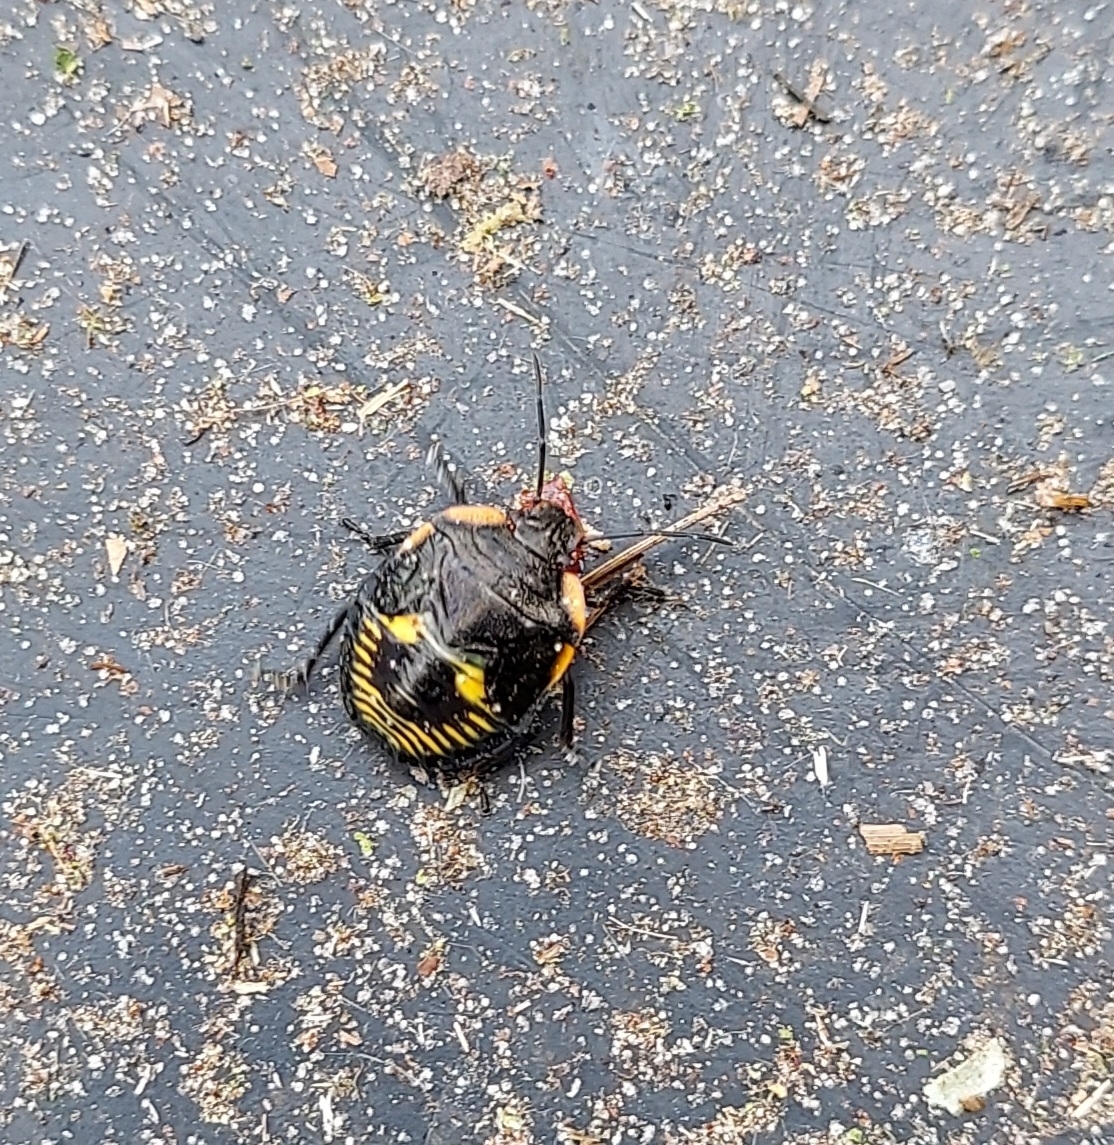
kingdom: Animalia
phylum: Arthropoda
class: Insecta
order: Hemiptera
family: Pentatomidae
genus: Chinavia
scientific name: Chinavia hilaris
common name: Green stink bug
